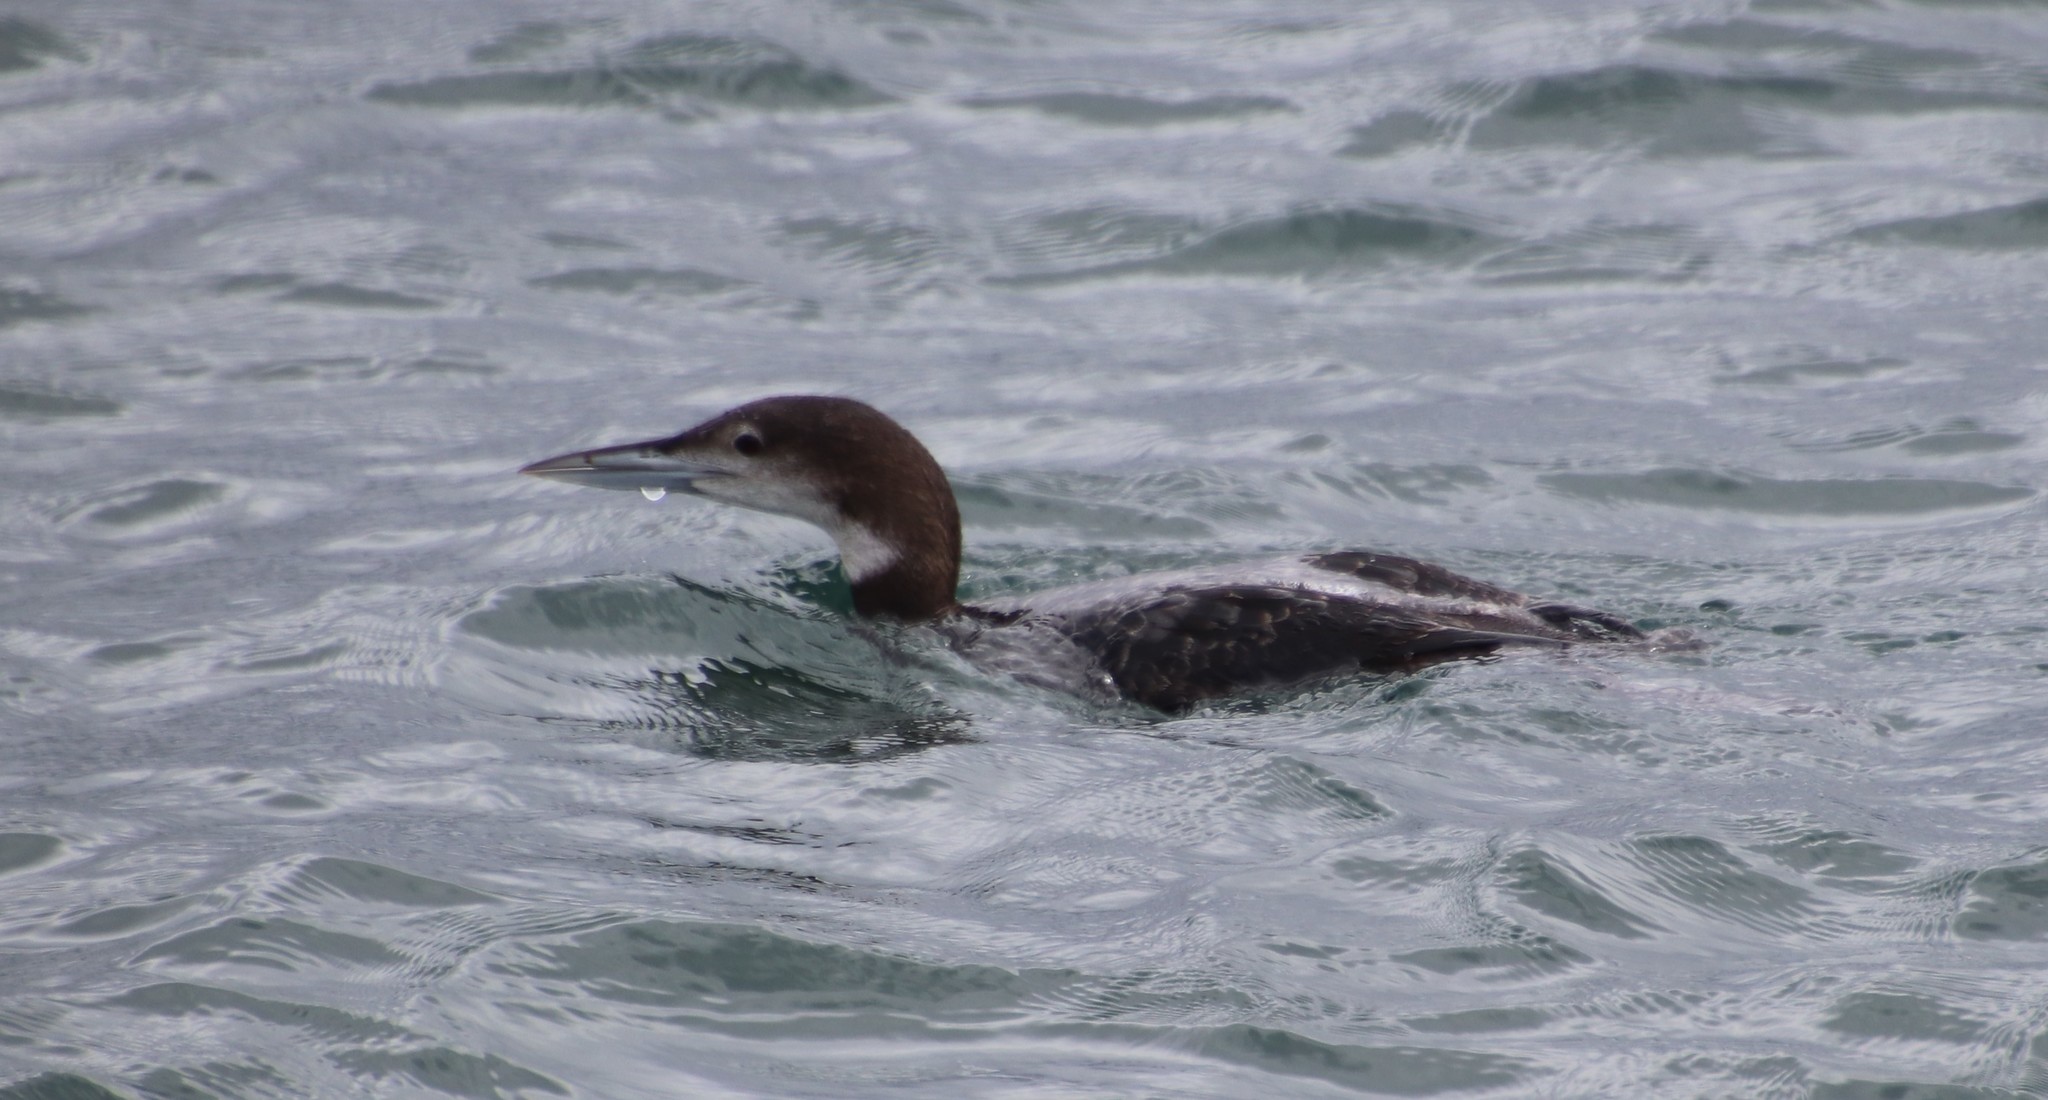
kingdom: Animalia
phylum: Chordata
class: Aves
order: Gaviiformes
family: Gaviidae
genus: Gavia
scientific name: Gavia immer
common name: Common loon
